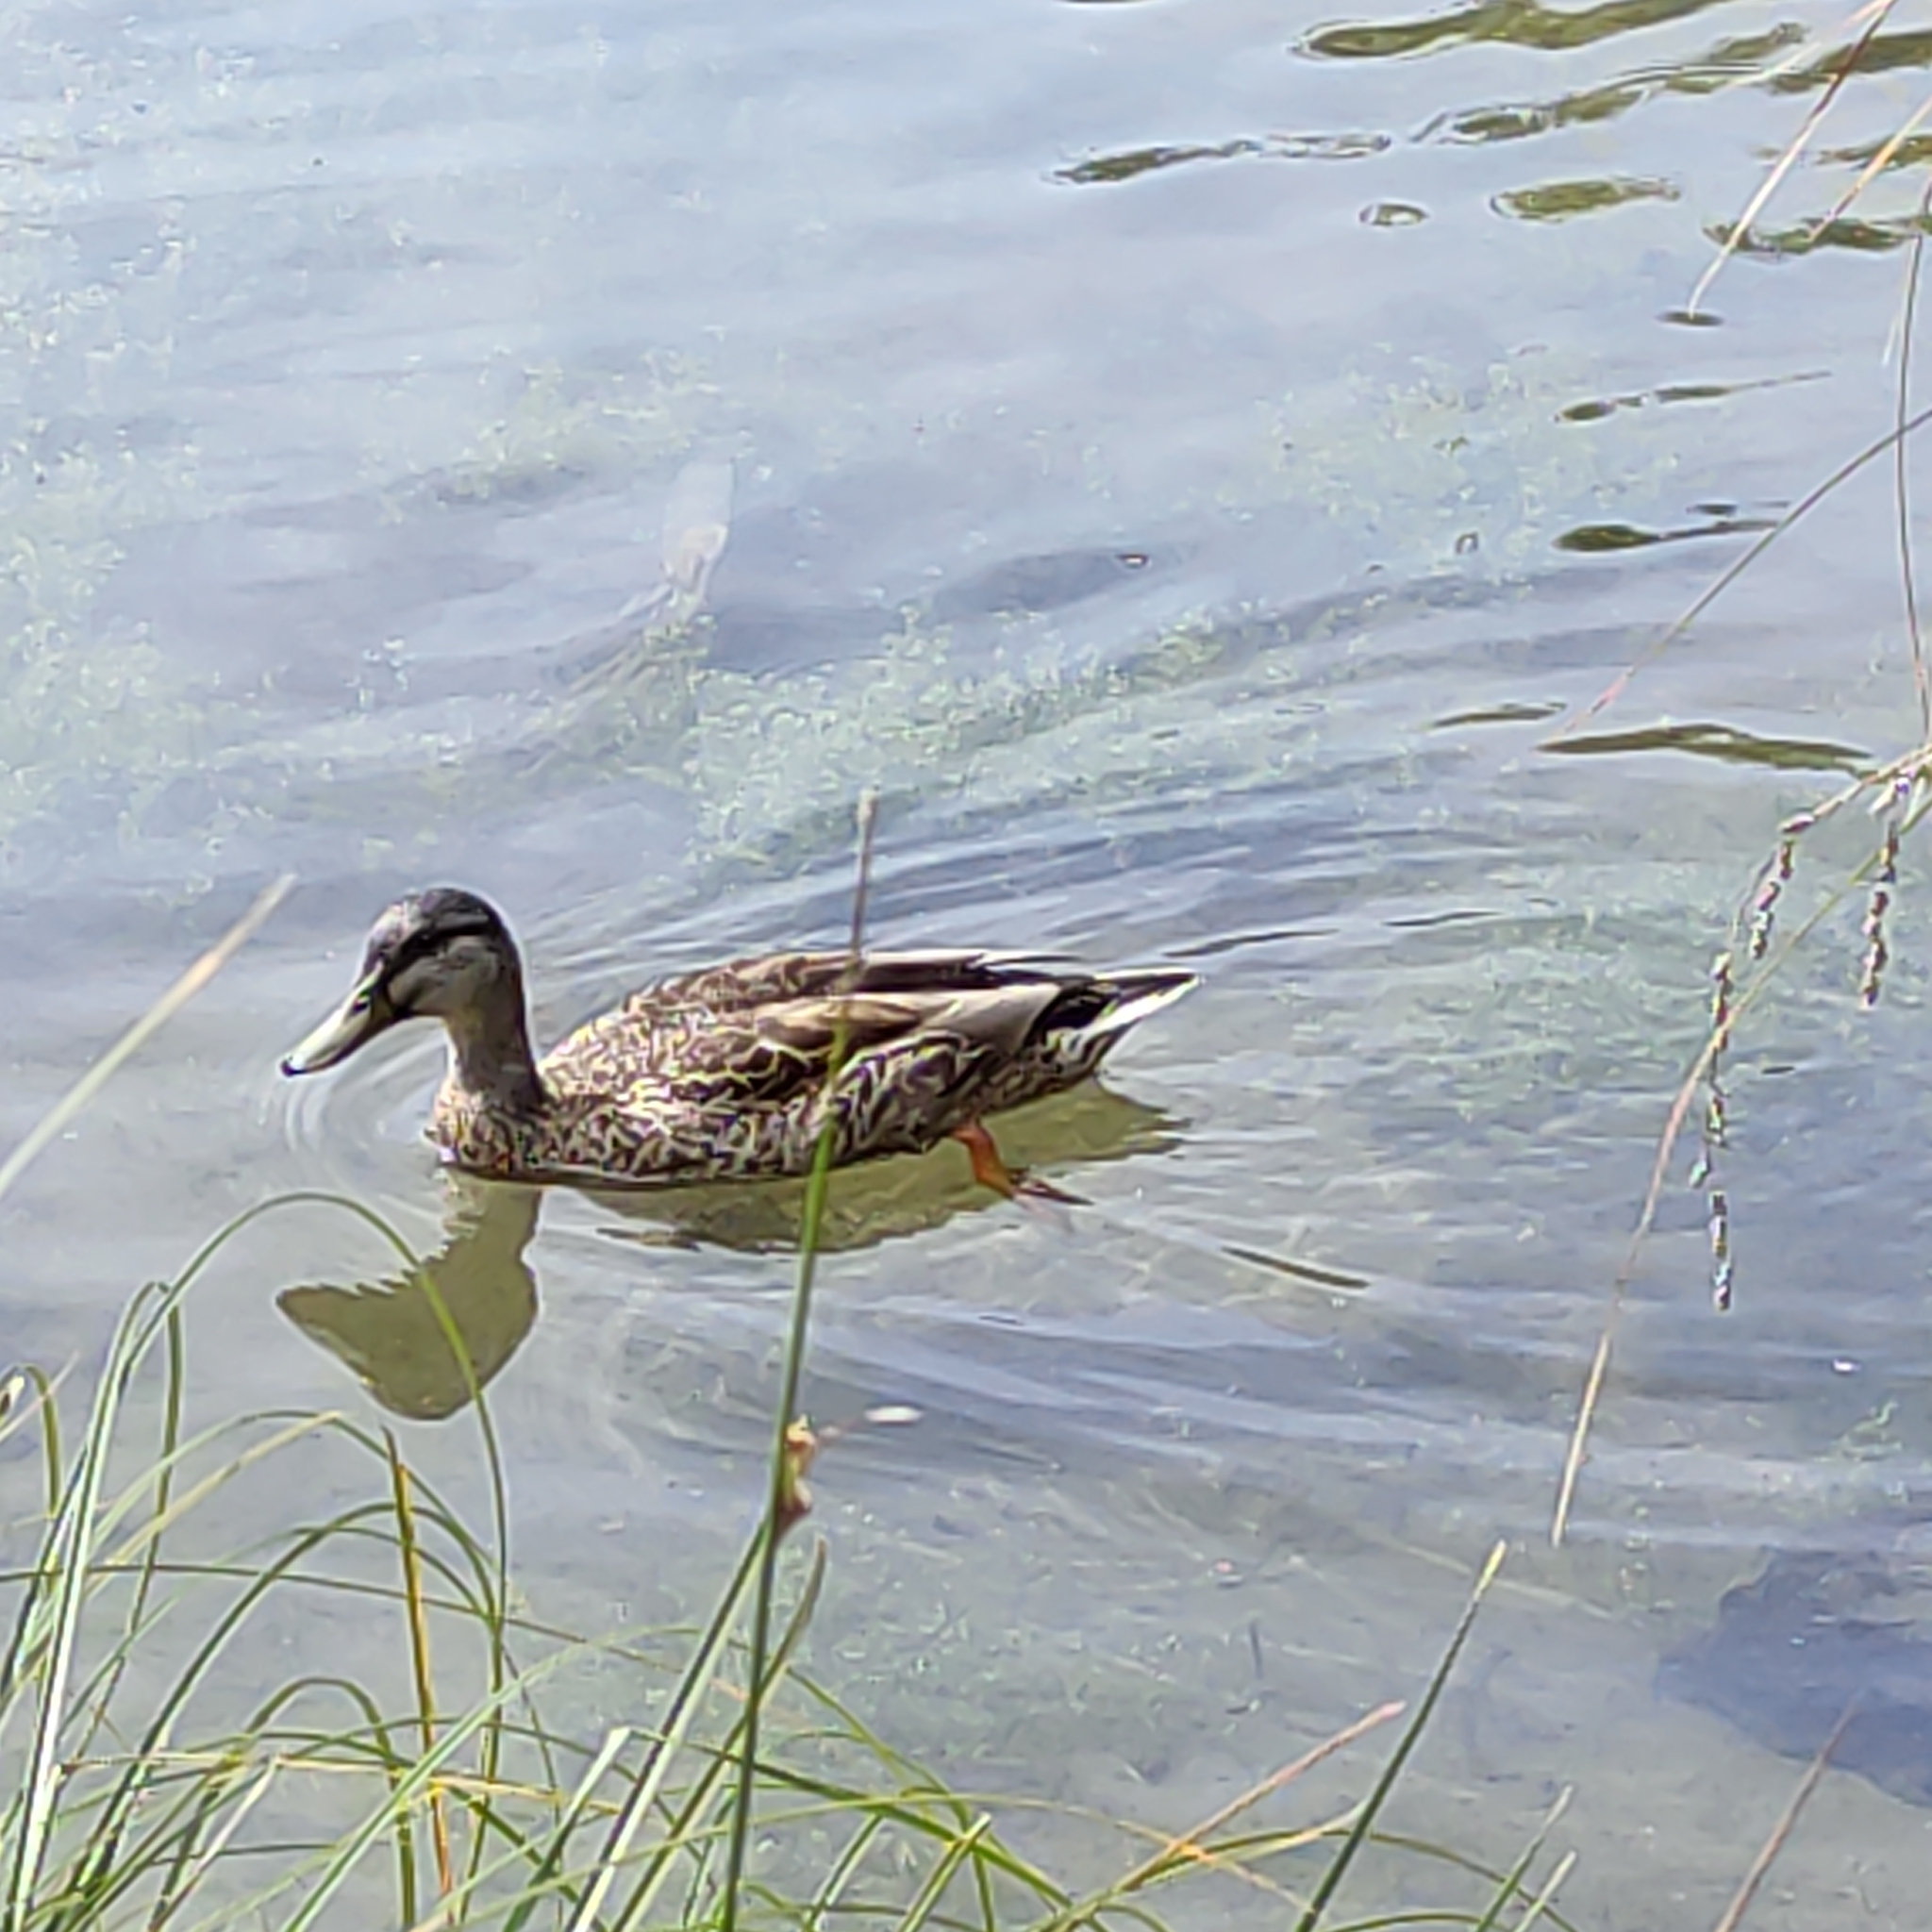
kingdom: Animalia
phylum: Chordata
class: Aves
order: Anseriformes
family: Anatidae
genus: Anas
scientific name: Anas
